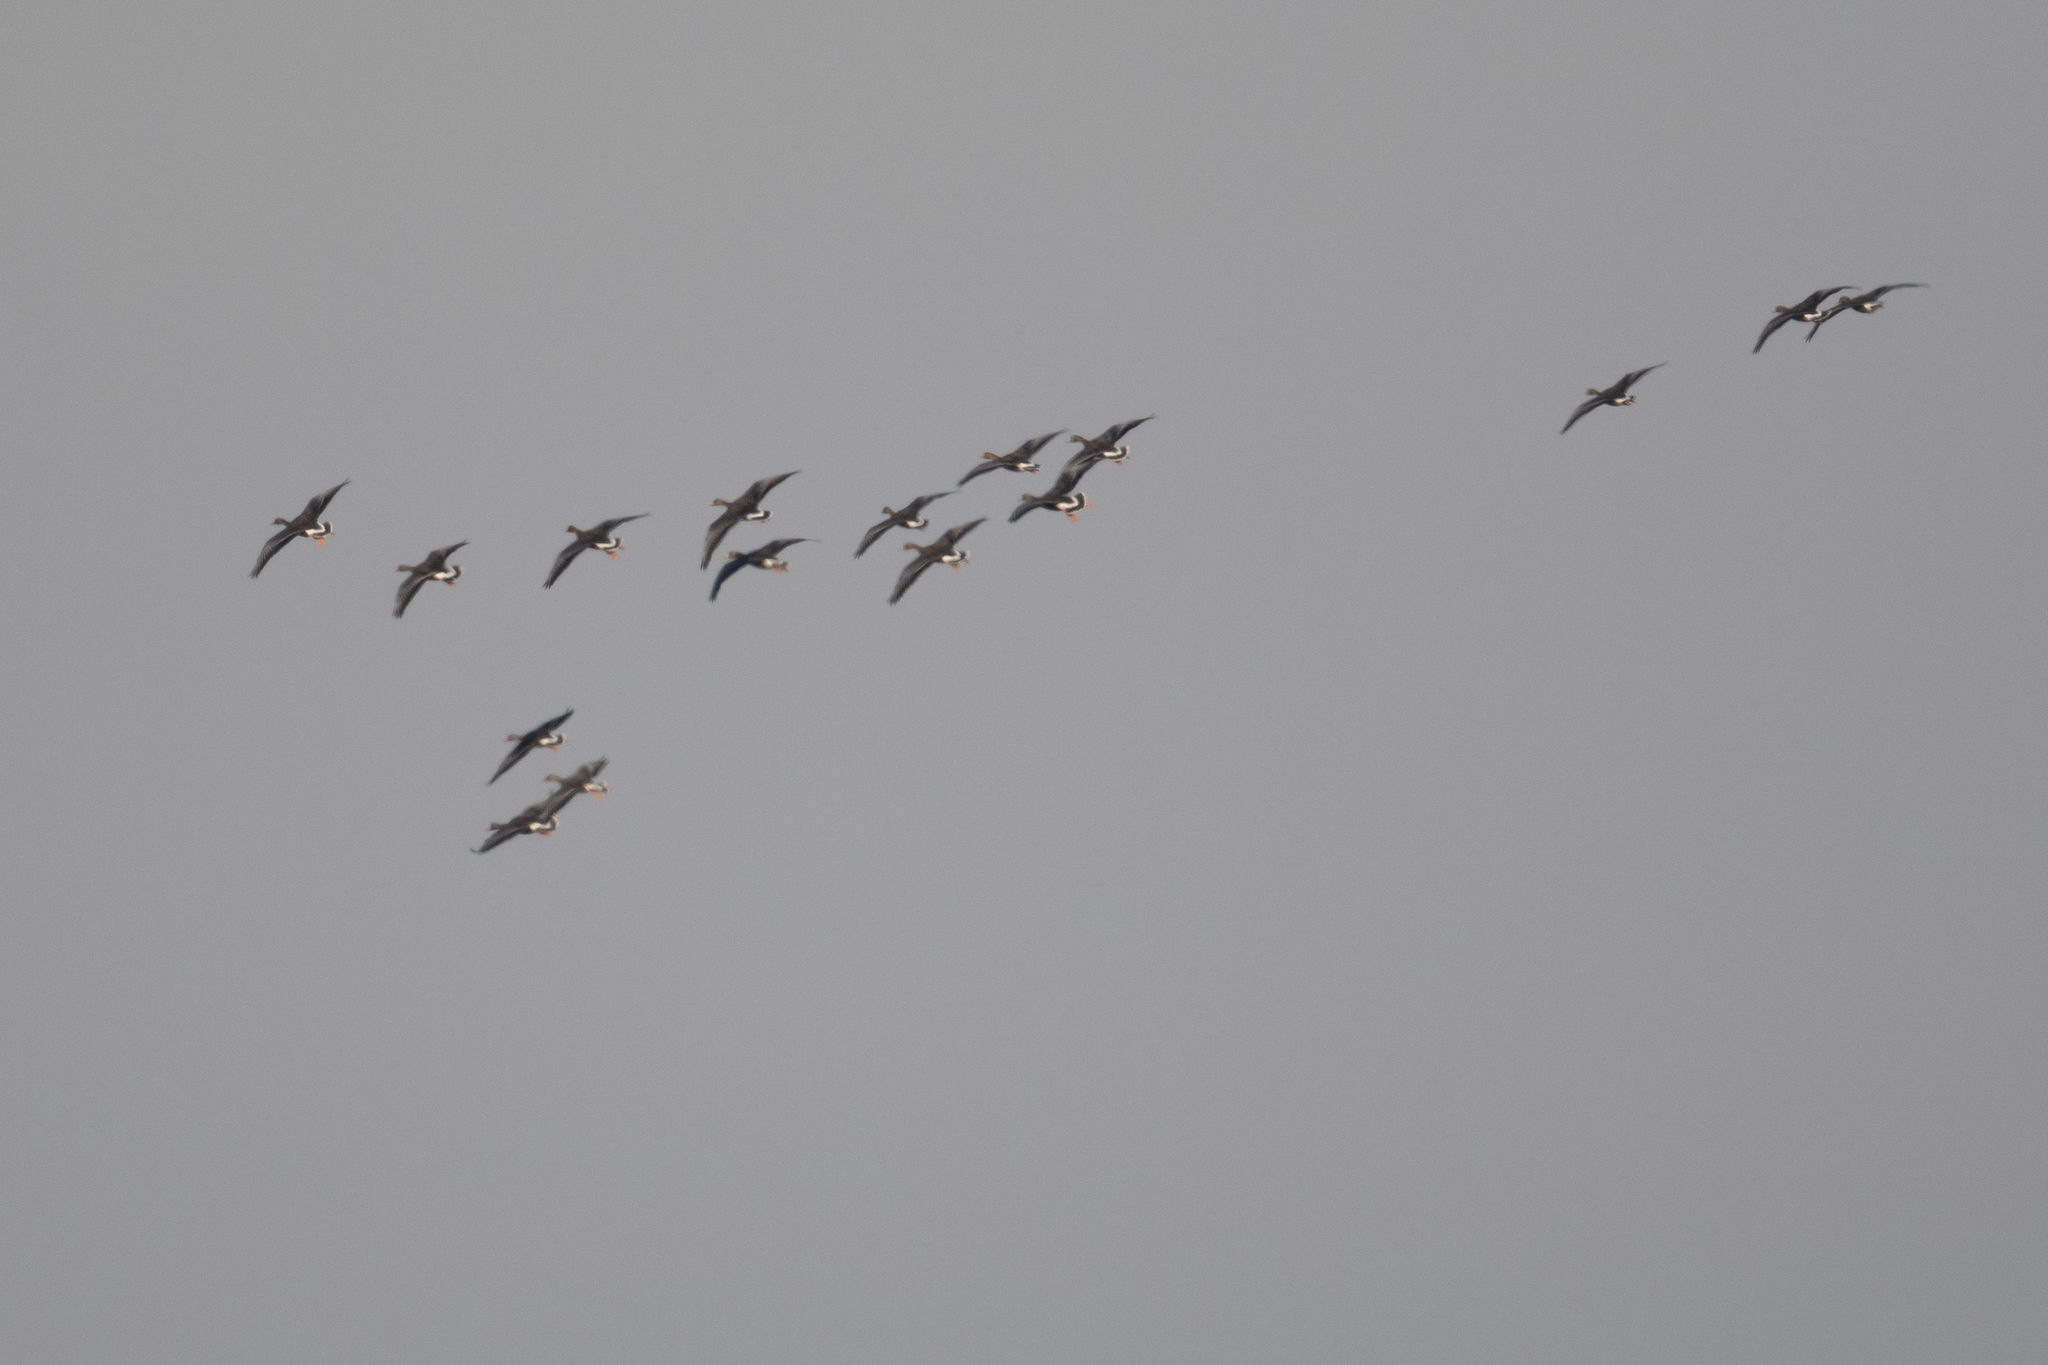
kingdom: Animalia
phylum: Chordata
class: Aves
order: Anseriformes
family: Anatidae
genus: Anser
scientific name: Anser albifrons
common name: Greater white-fronted goose
